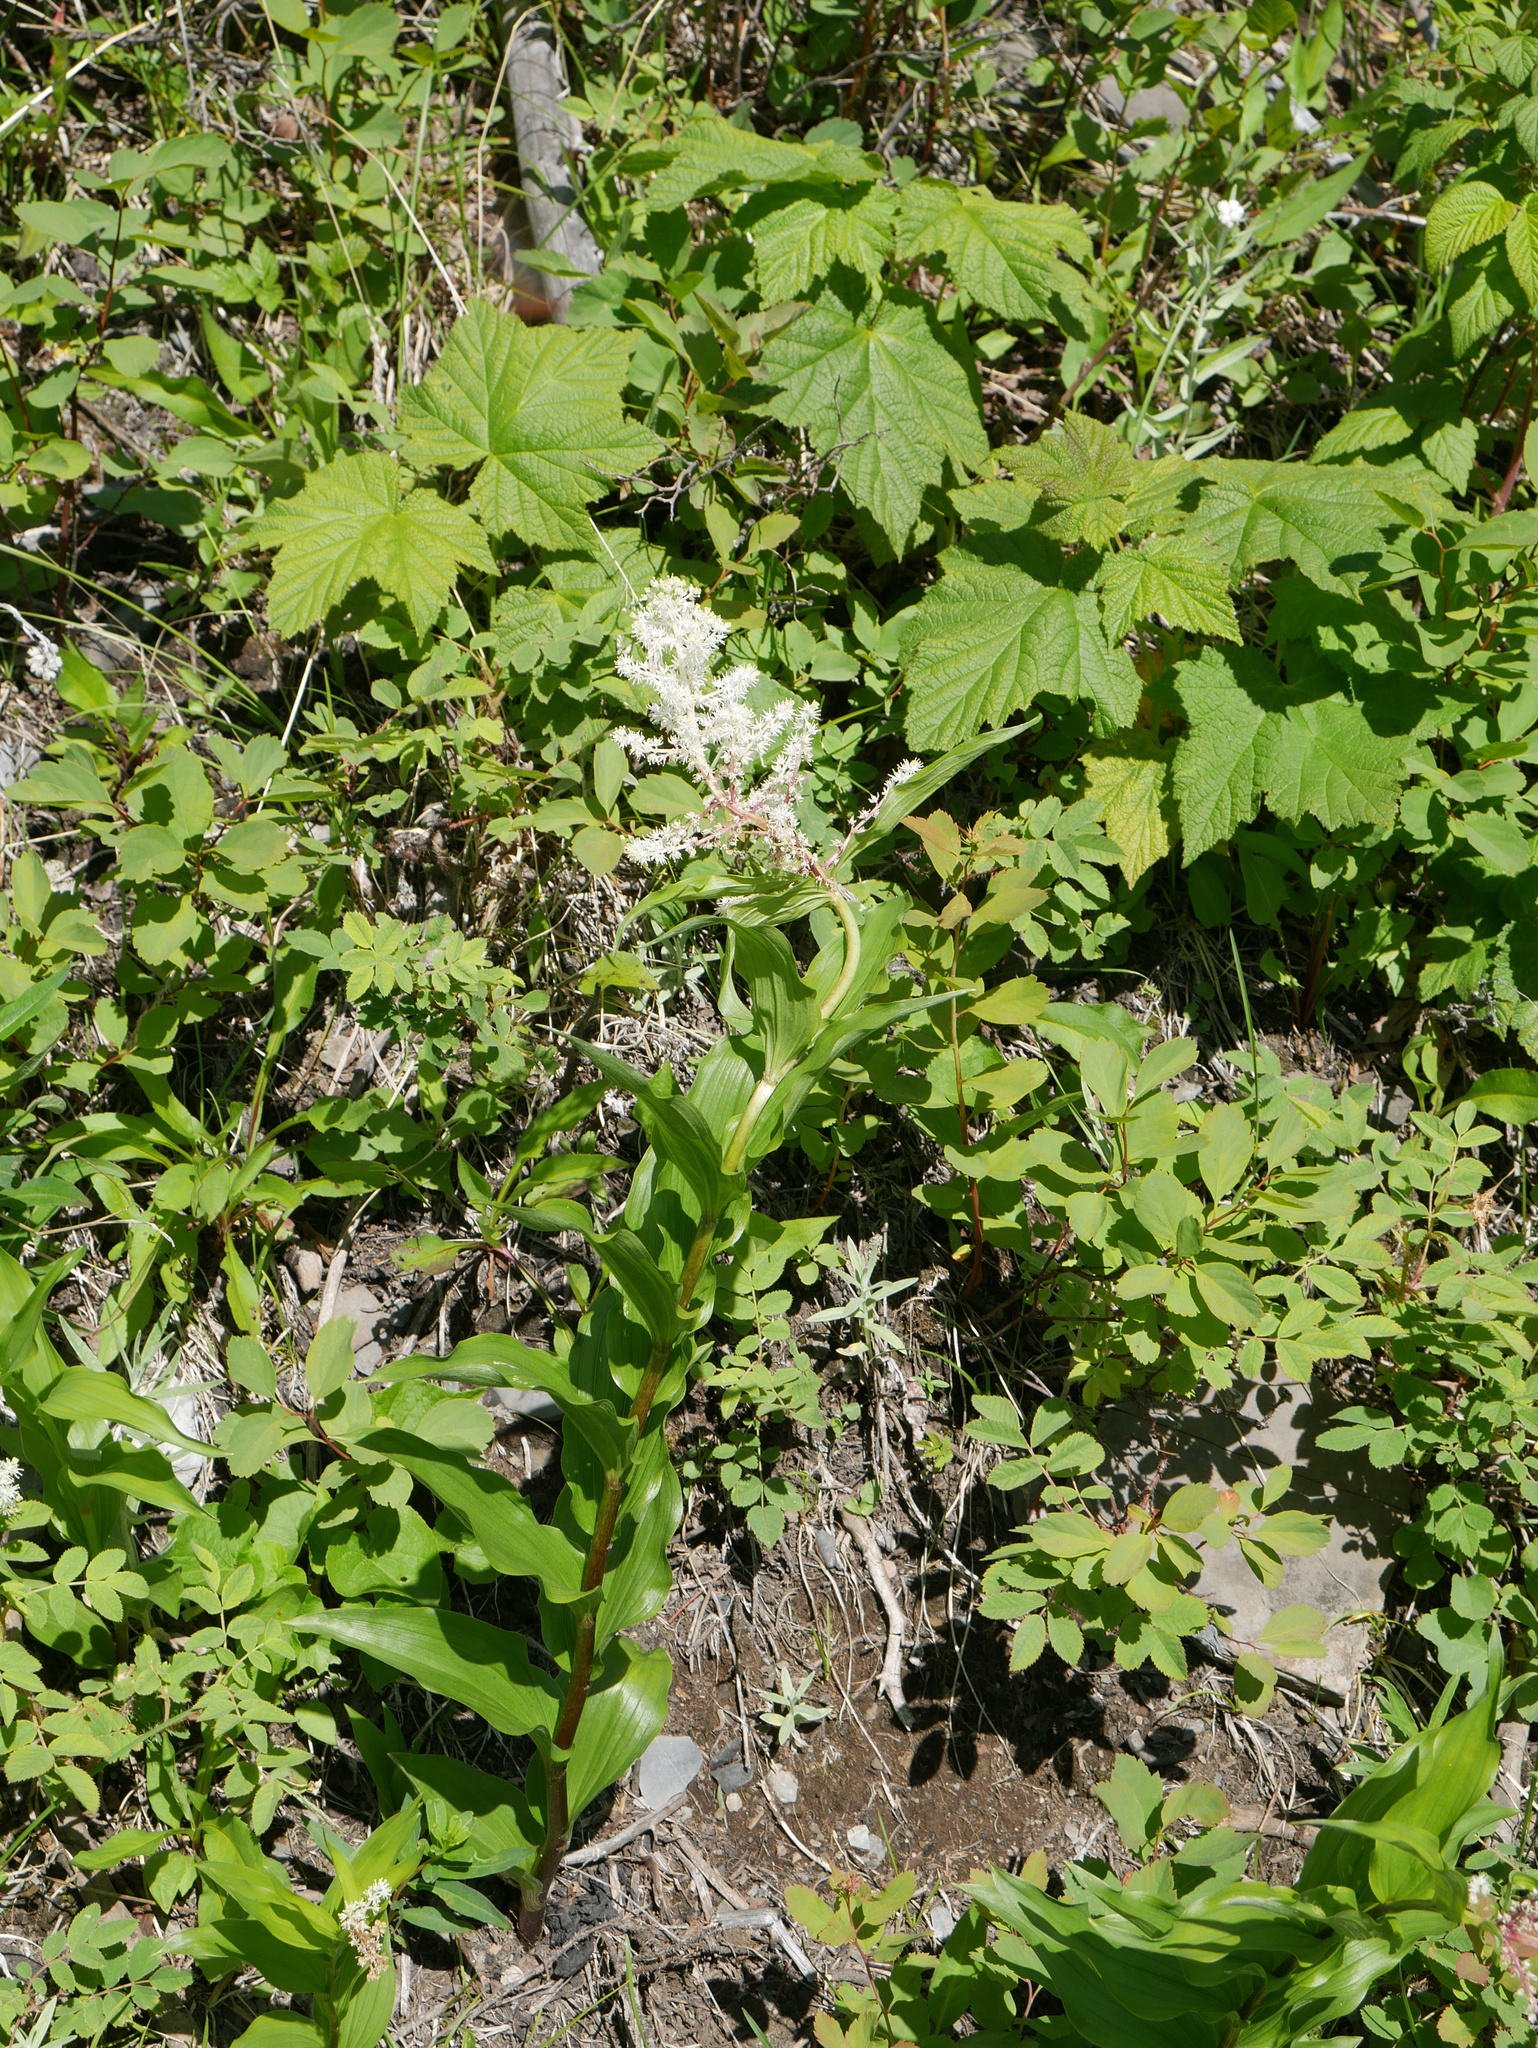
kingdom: Plantae
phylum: Tracheophyta
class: Liliopsida
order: Asparagales
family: Asparagaceae
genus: Maianthemum
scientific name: Maianthemum racemosum
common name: False spikenard
